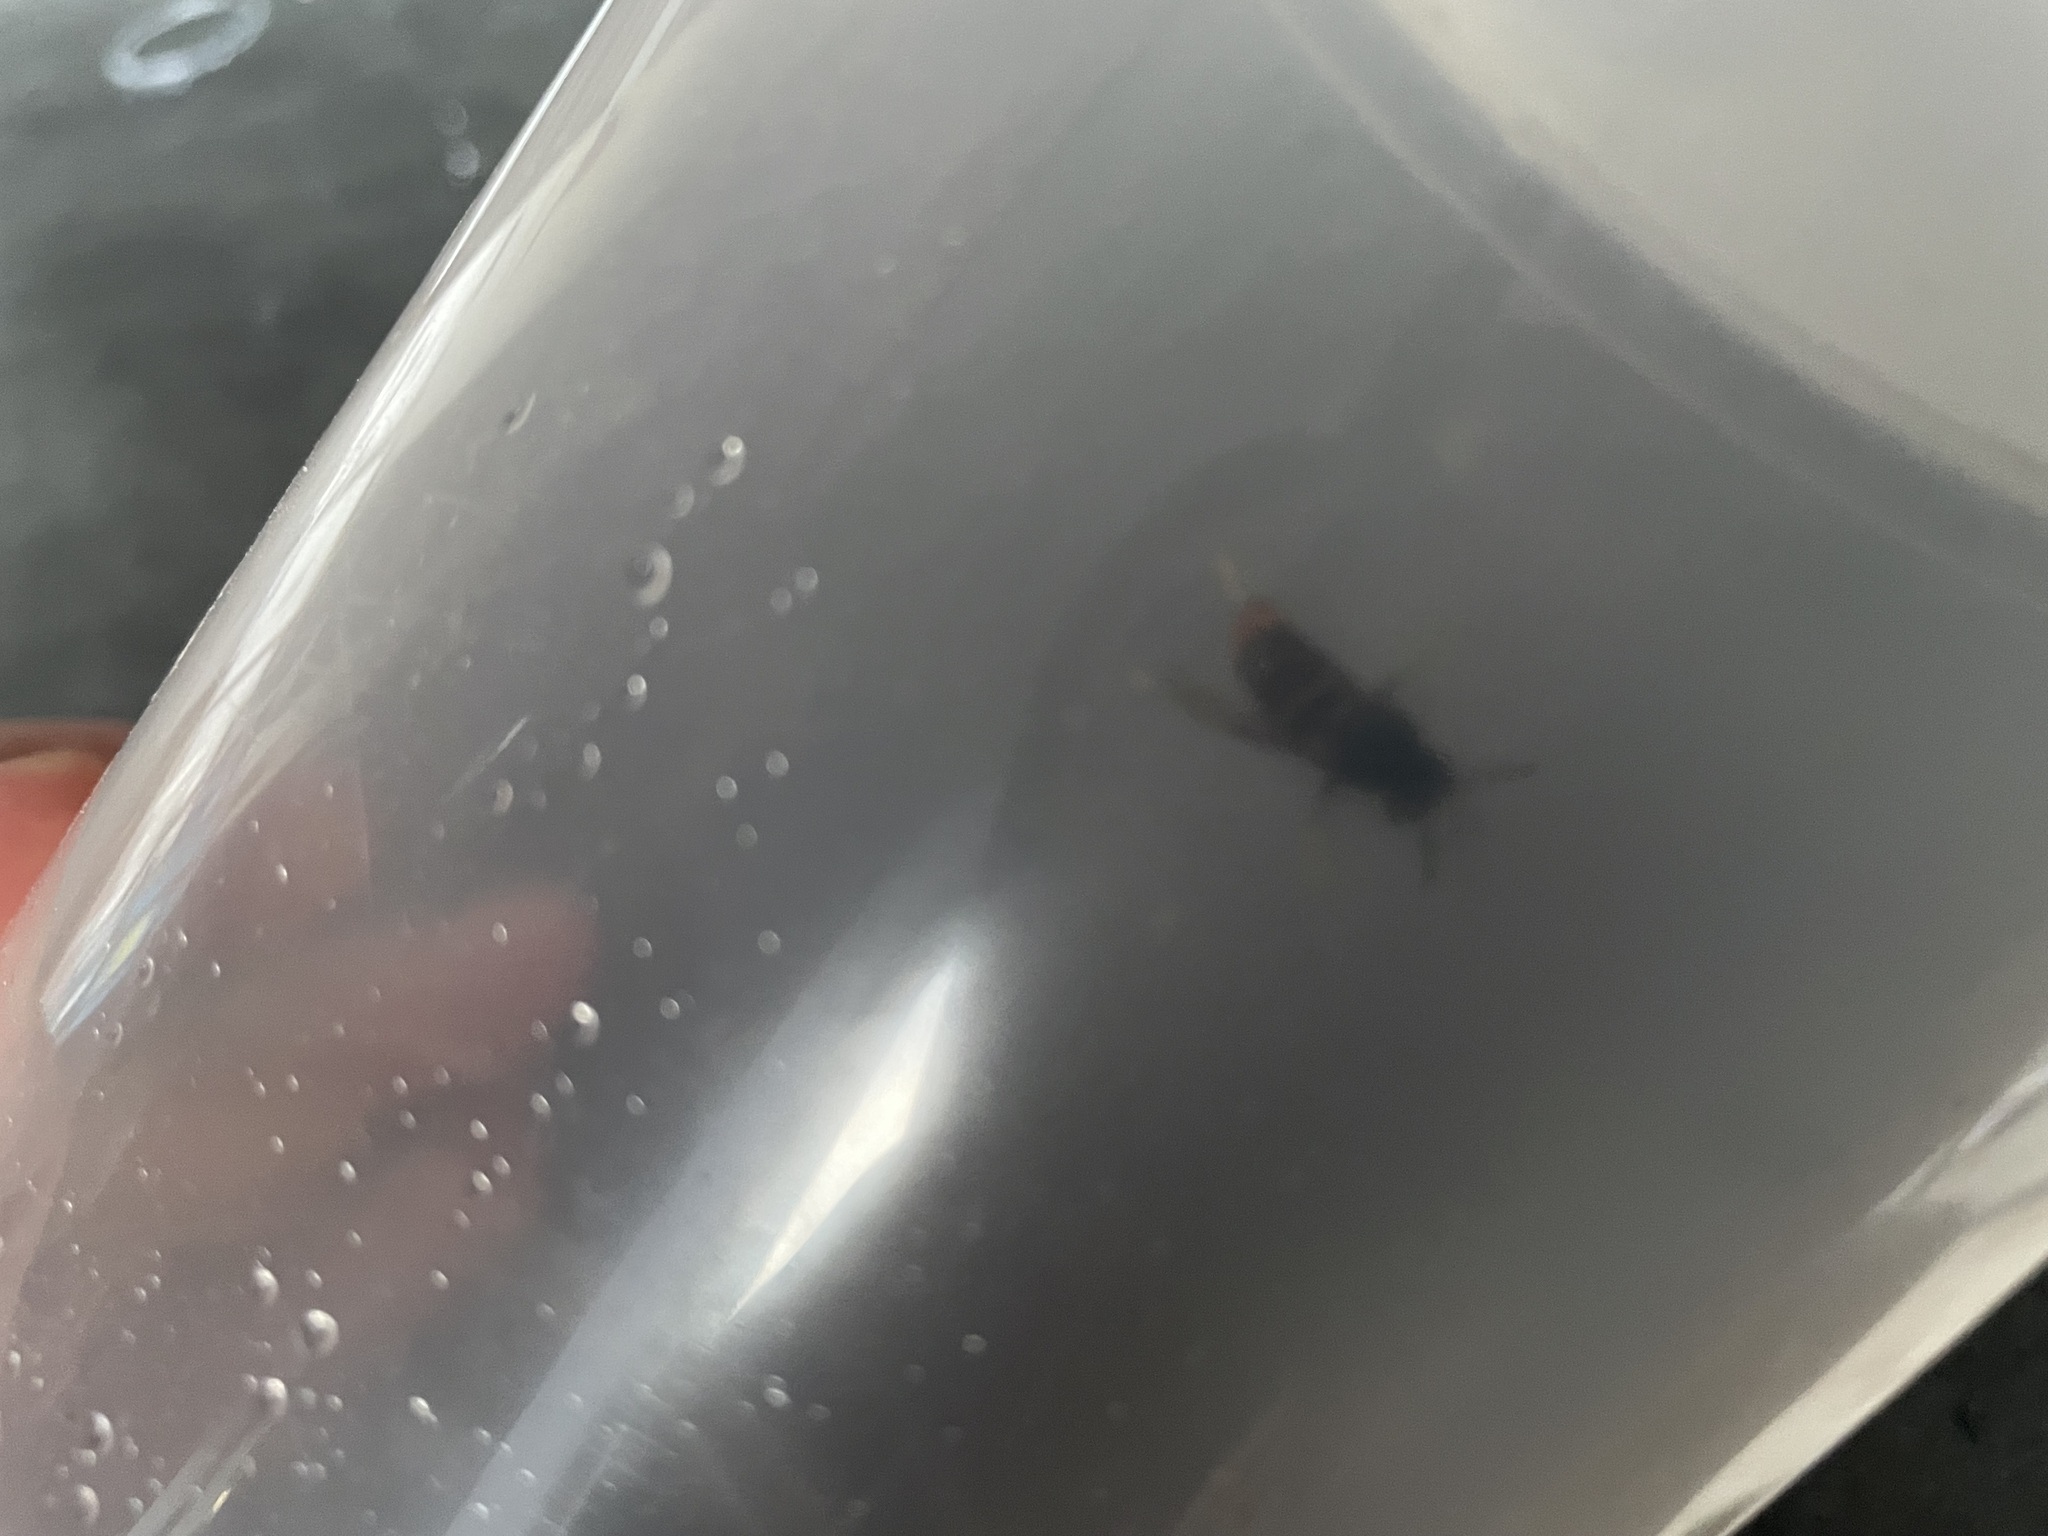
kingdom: Animalia
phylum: Arthropoda
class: Insecta
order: Hymenoptera
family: Vespidae
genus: Vespa
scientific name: Vespa velutina
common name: Asian hornet
